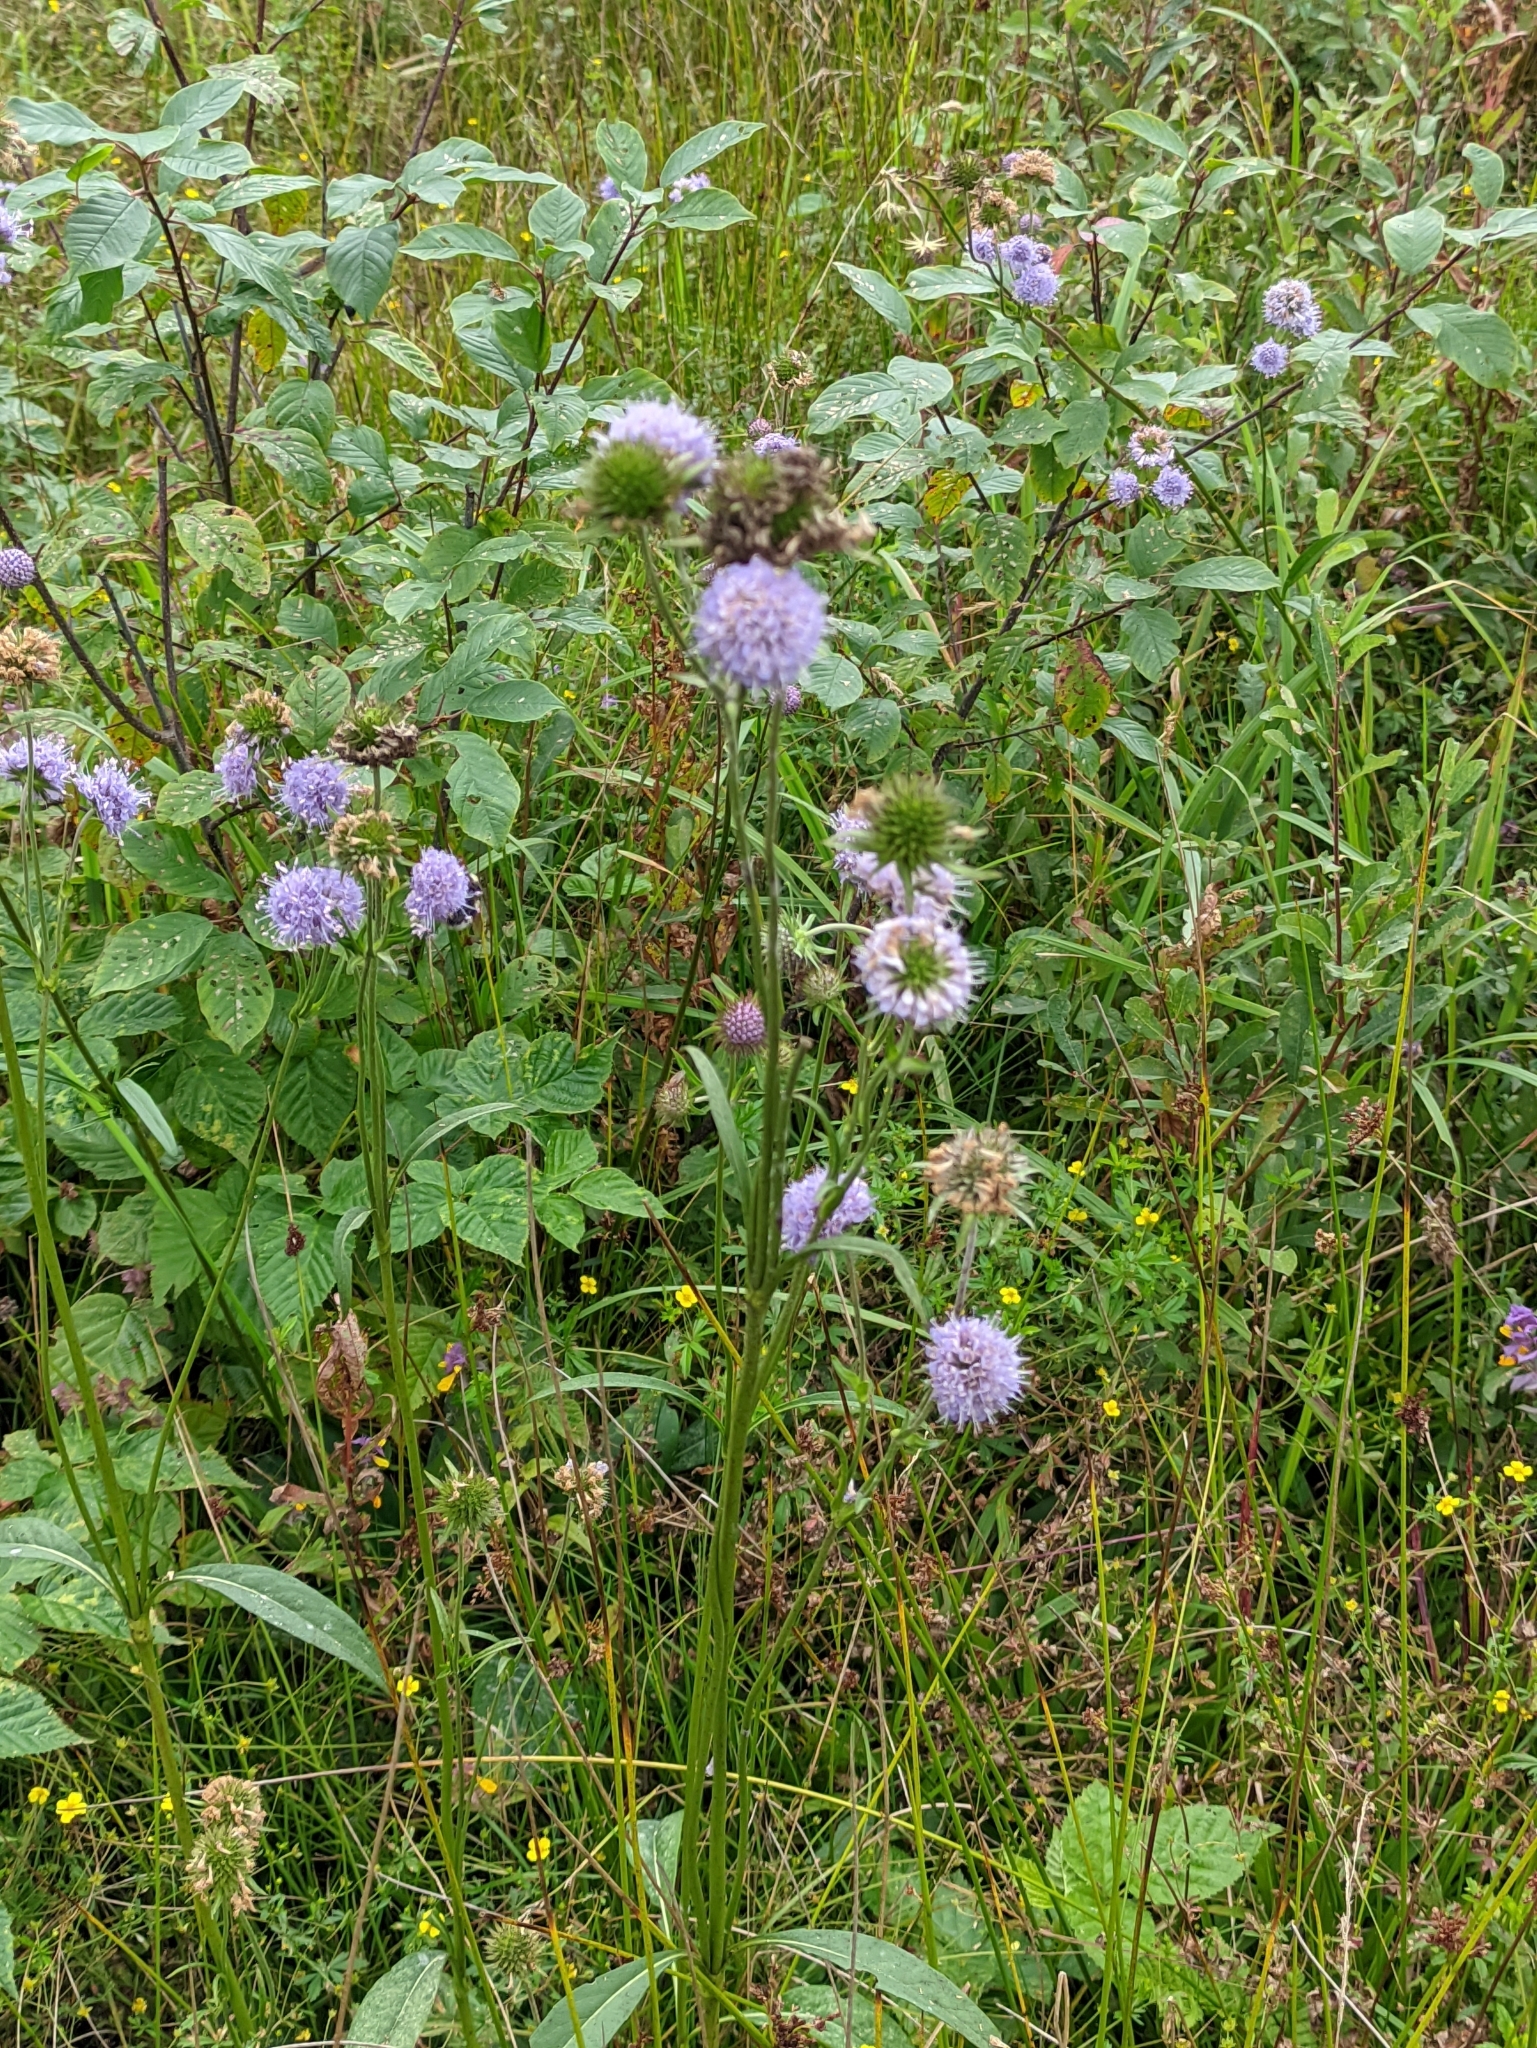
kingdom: Plantae
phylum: Tracheophyta
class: Magnoliopsida
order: Dipsacales
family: Caprifoliaceae
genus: Succisa
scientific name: Succisa pratensis
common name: Devil's-bit
